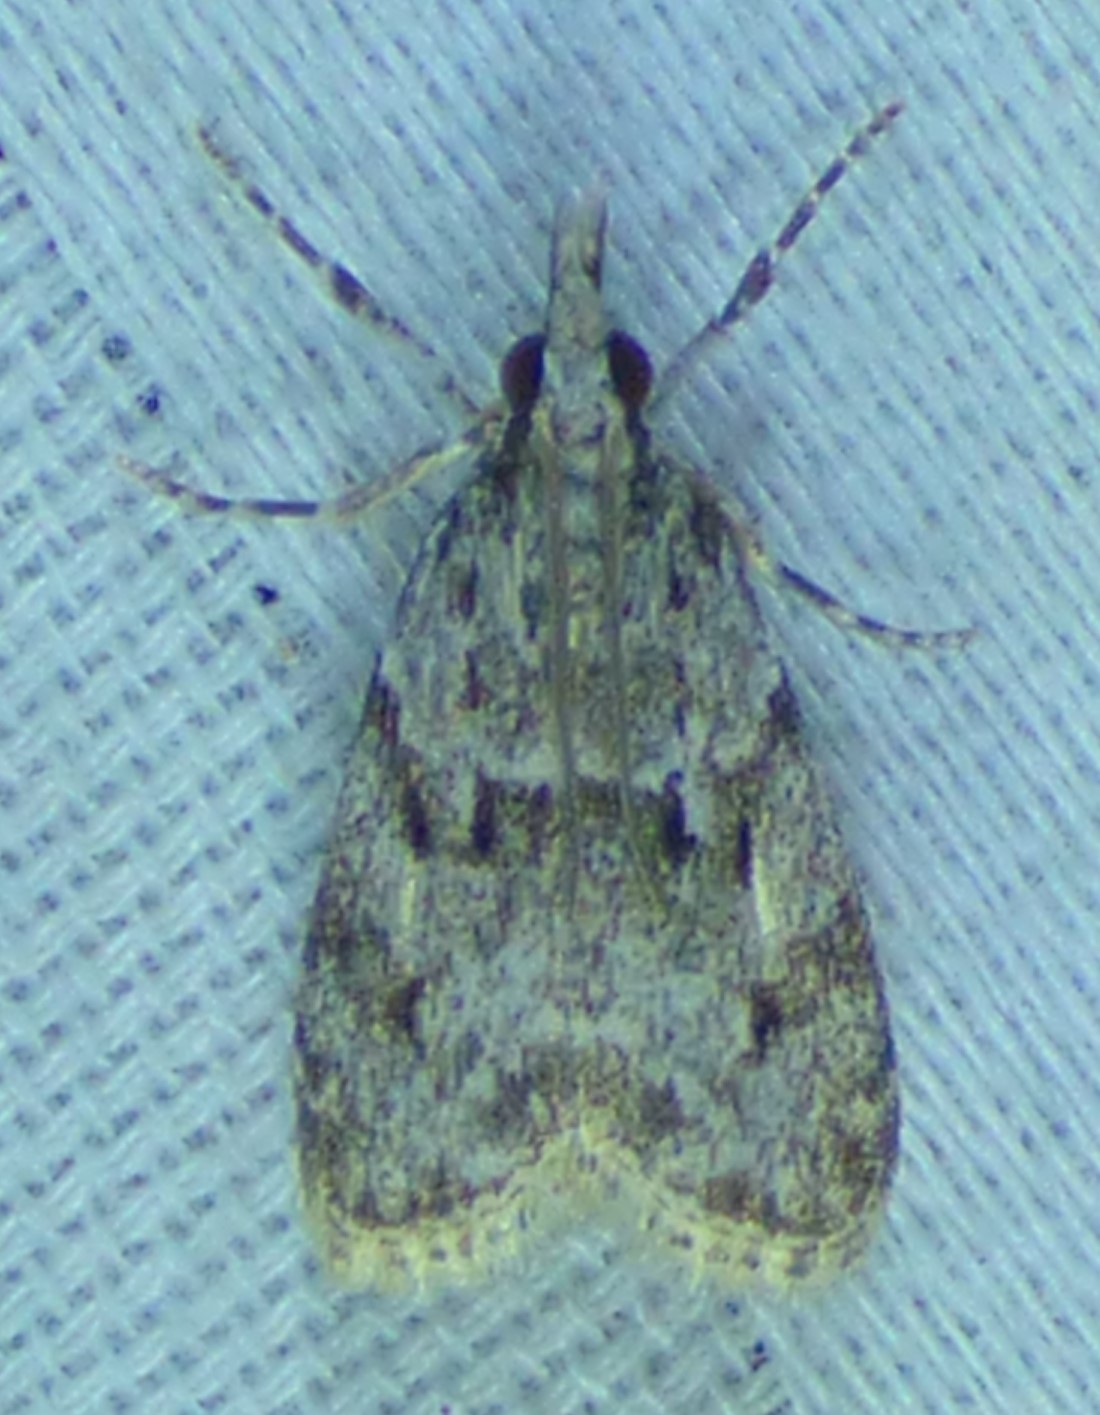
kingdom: Animalia
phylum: Arthropoda
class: Insecta
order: Lepidoptera
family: Crambidae
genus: Eudonia
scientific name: Eudonia heterosalis
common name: Mcdunnough's eudonia
